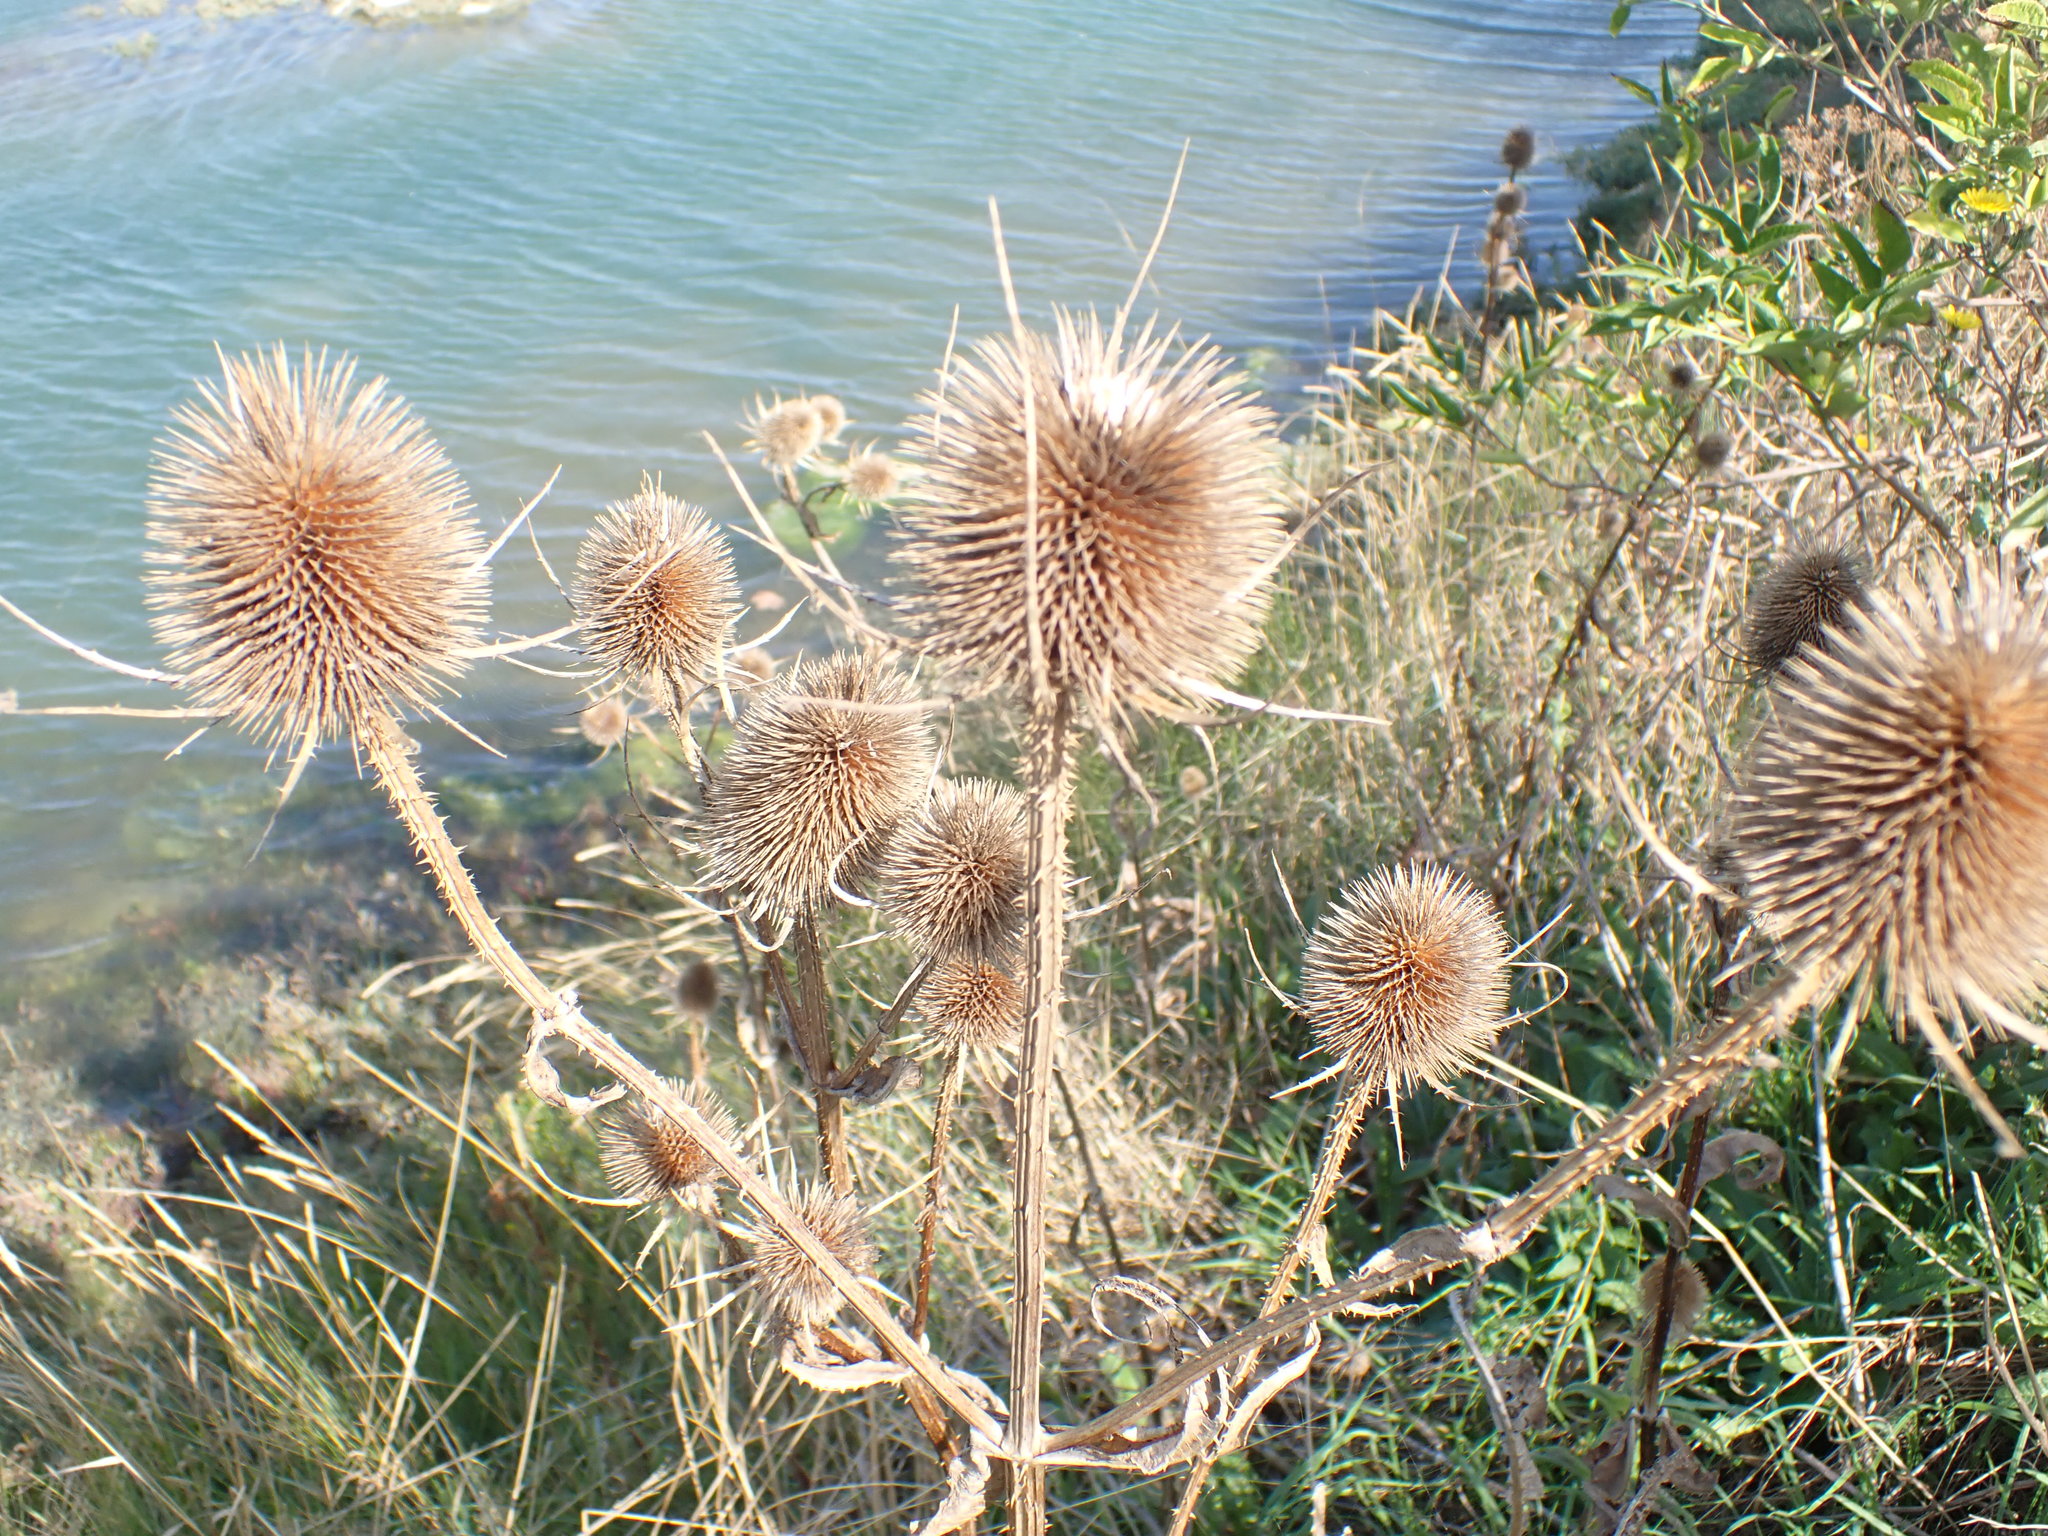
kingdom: Plantae
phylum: Tracheophyta
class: Magnoliopsida
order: Dipsacales
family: Caprifoliaceae
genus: Dipsacus
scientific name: Dipsacus fullonum
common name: Teasel
